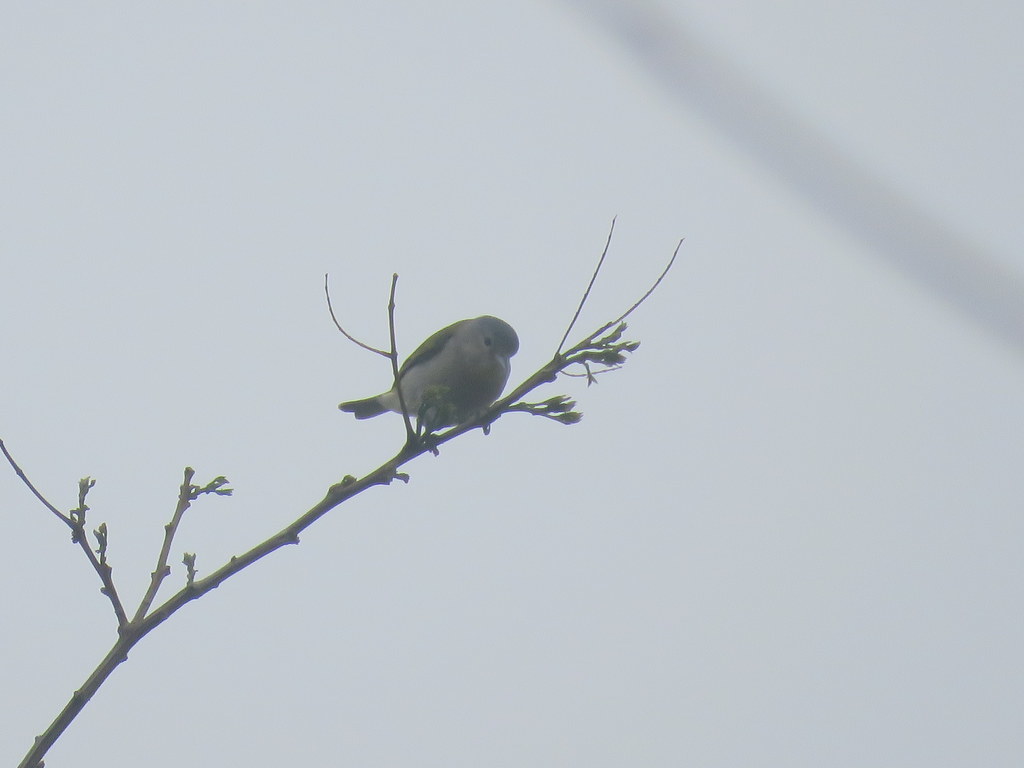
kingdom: Animalia
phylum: Chordata
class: Aves
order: Passeriformes
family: Thraupidae
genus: Conirostrum
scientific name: Conirostrum speciosum
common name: Chestnut-vented conebill
